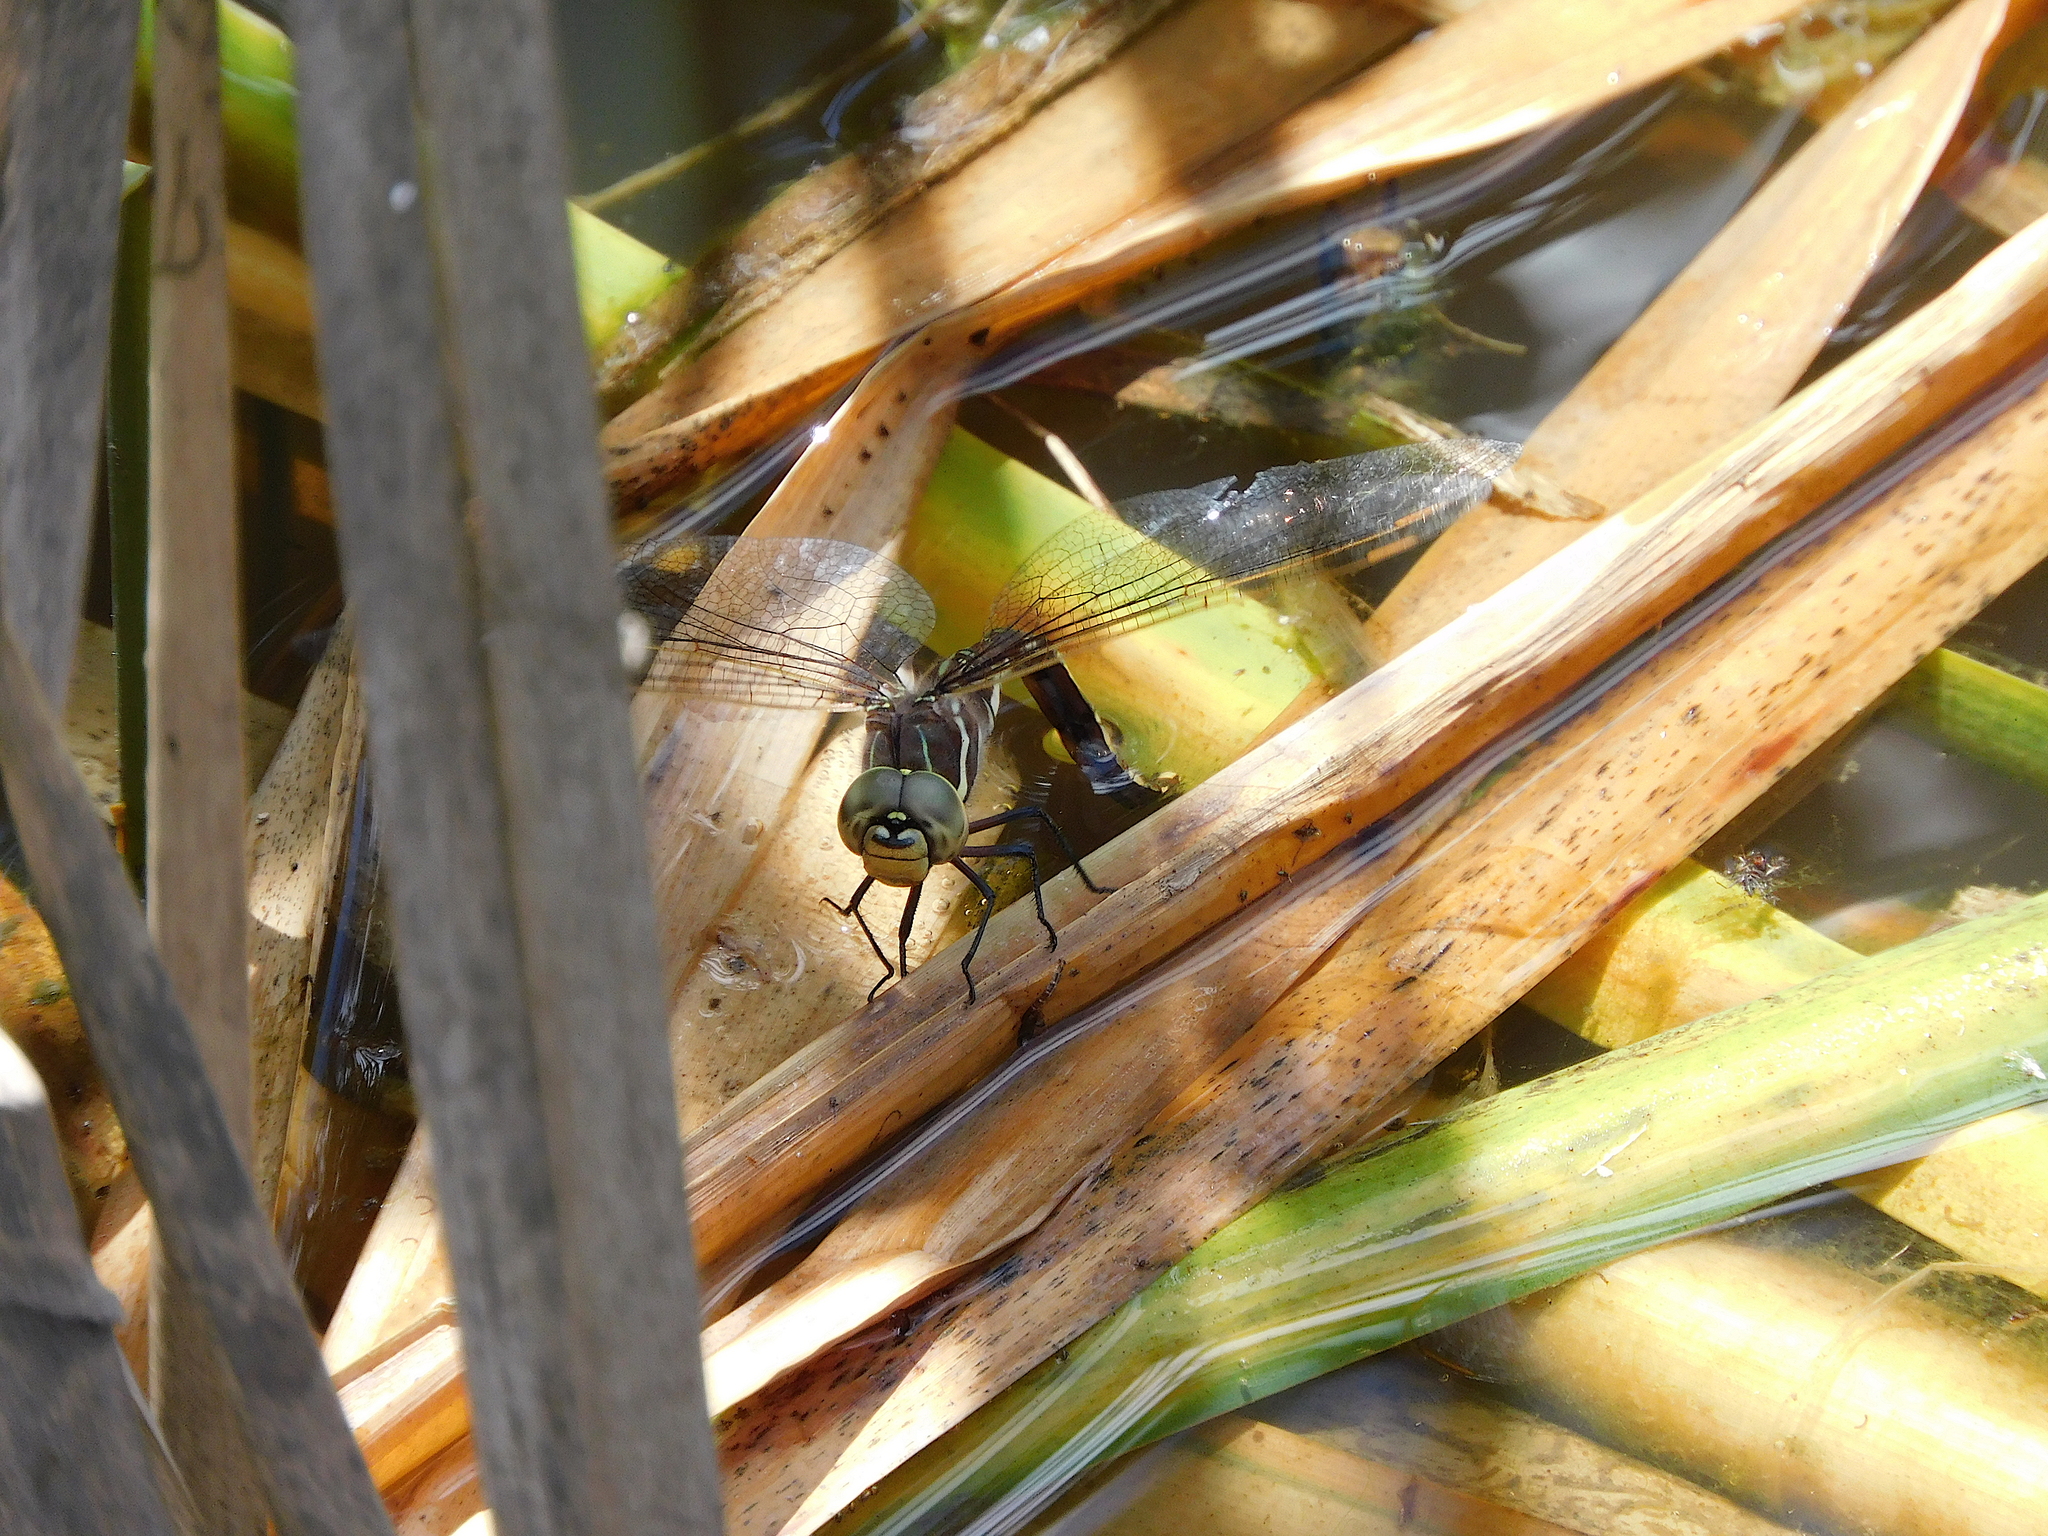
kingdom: Animalia
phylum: Arthropoda
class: Insecta
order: Odonata
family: Aeshnidae
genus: Aeshna
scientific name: Aeshna brevistyla
